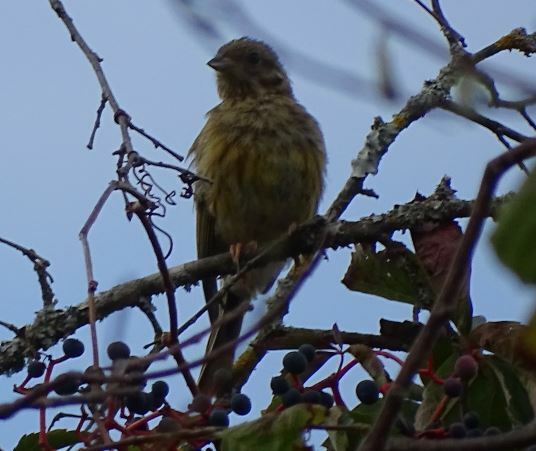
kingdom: Animalia
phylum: Chordata
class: Aves
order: Passeriformes
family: Emberizidae
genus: Emberiza
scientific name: Emberiza cirlus
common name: Cirl bunting
